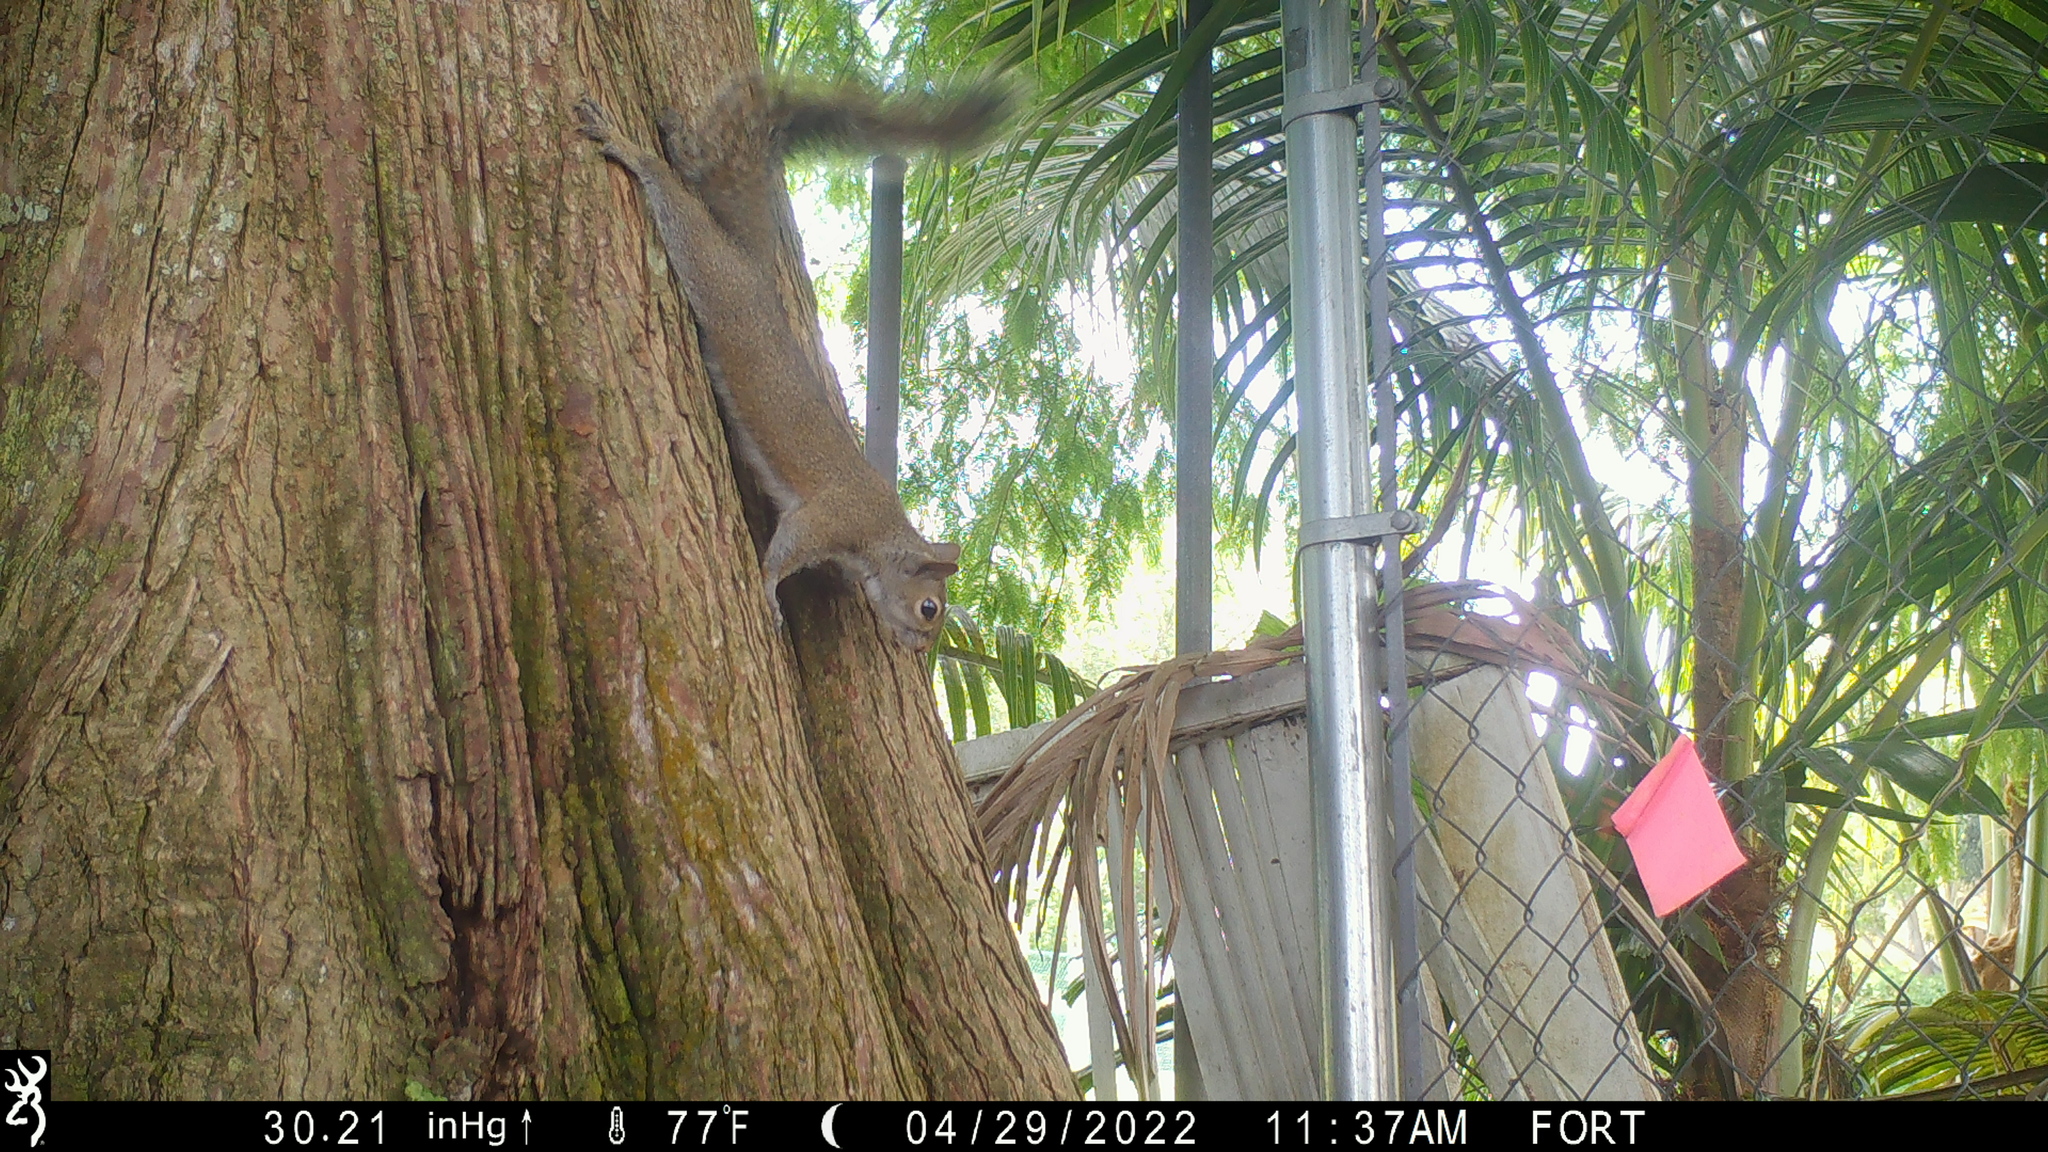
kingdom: Animalia
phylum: Chordata
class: Mammalia
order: Rodentia
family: Sciuridae
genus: Sciurus
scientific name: Sciurus carolinensis
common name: Eastern gray squirrel
